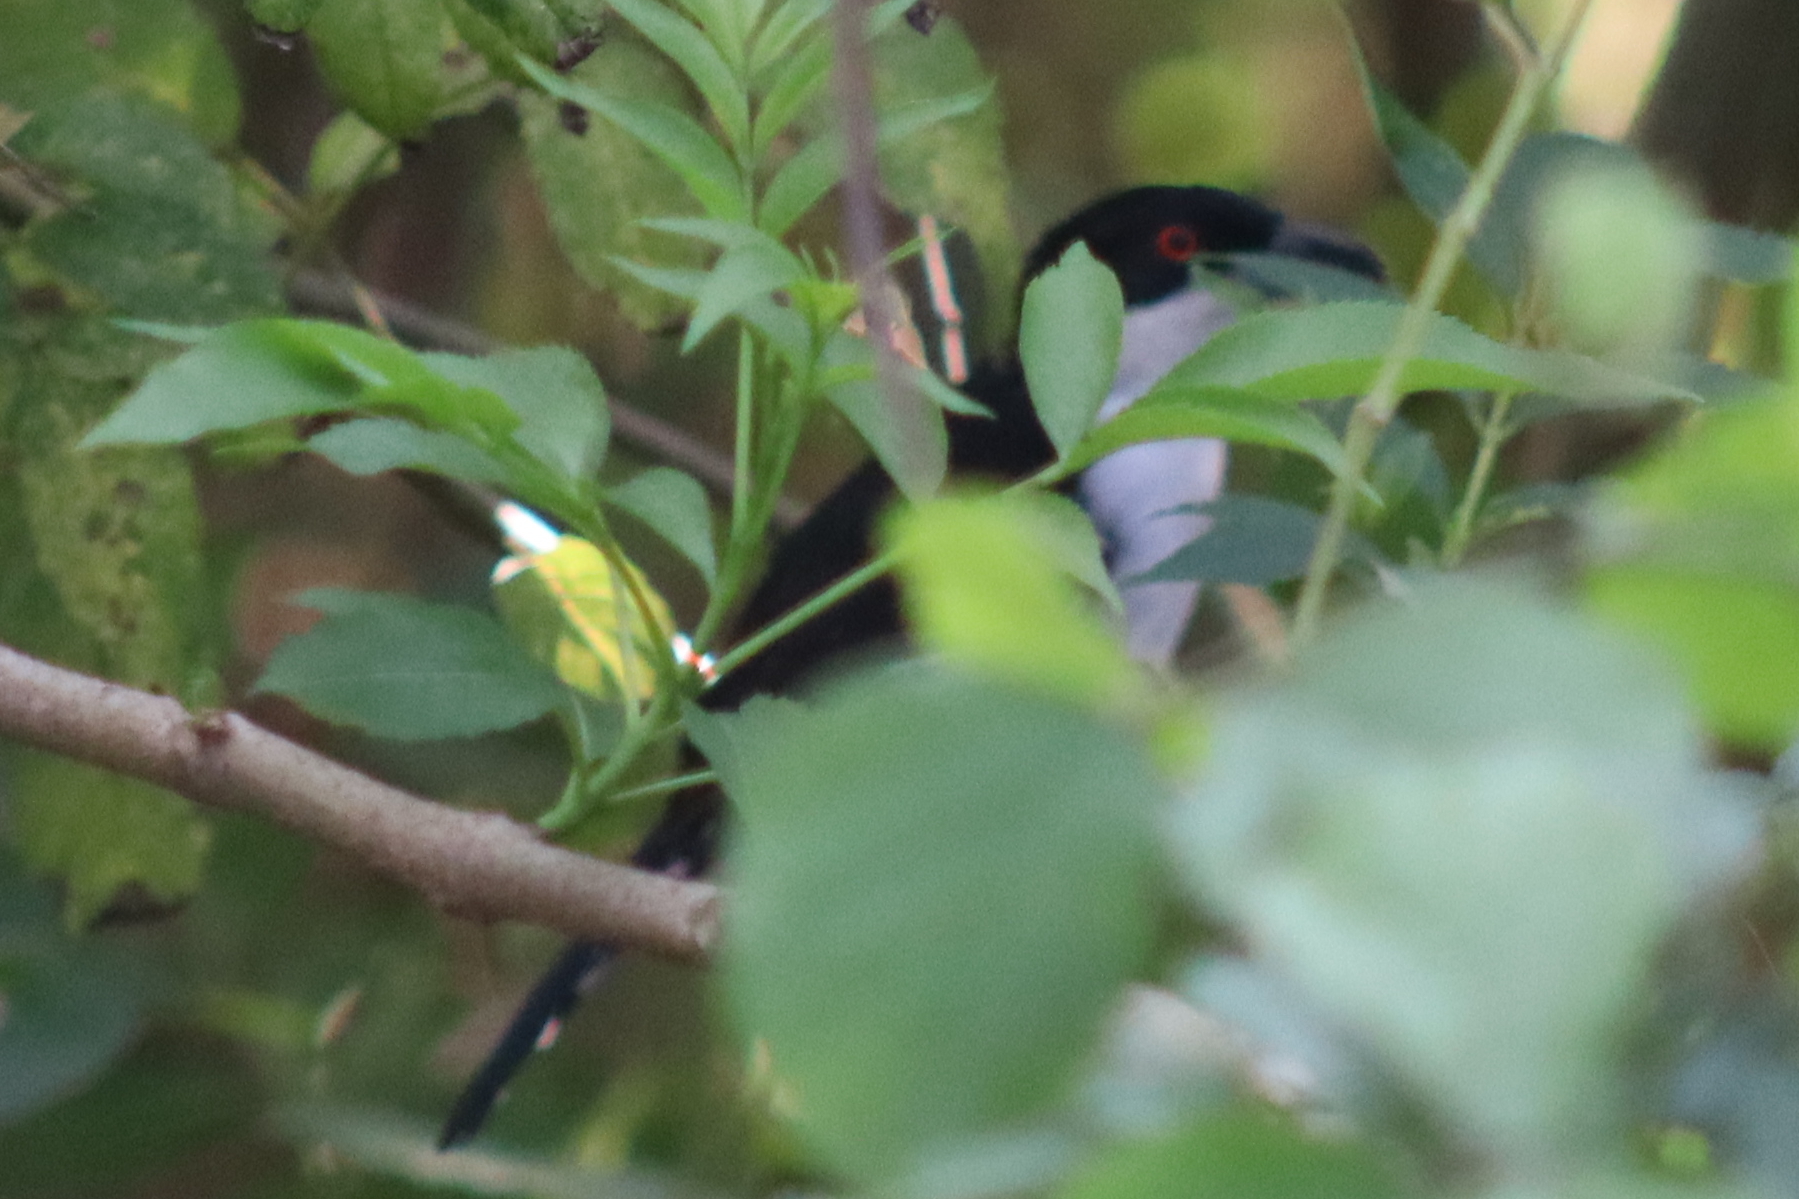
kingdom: Animalia
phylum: Chordata
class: Aves
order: Passeriformes
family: Thamnophilidae
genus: Taraba
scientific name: Taraba major
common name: Great antshrike
